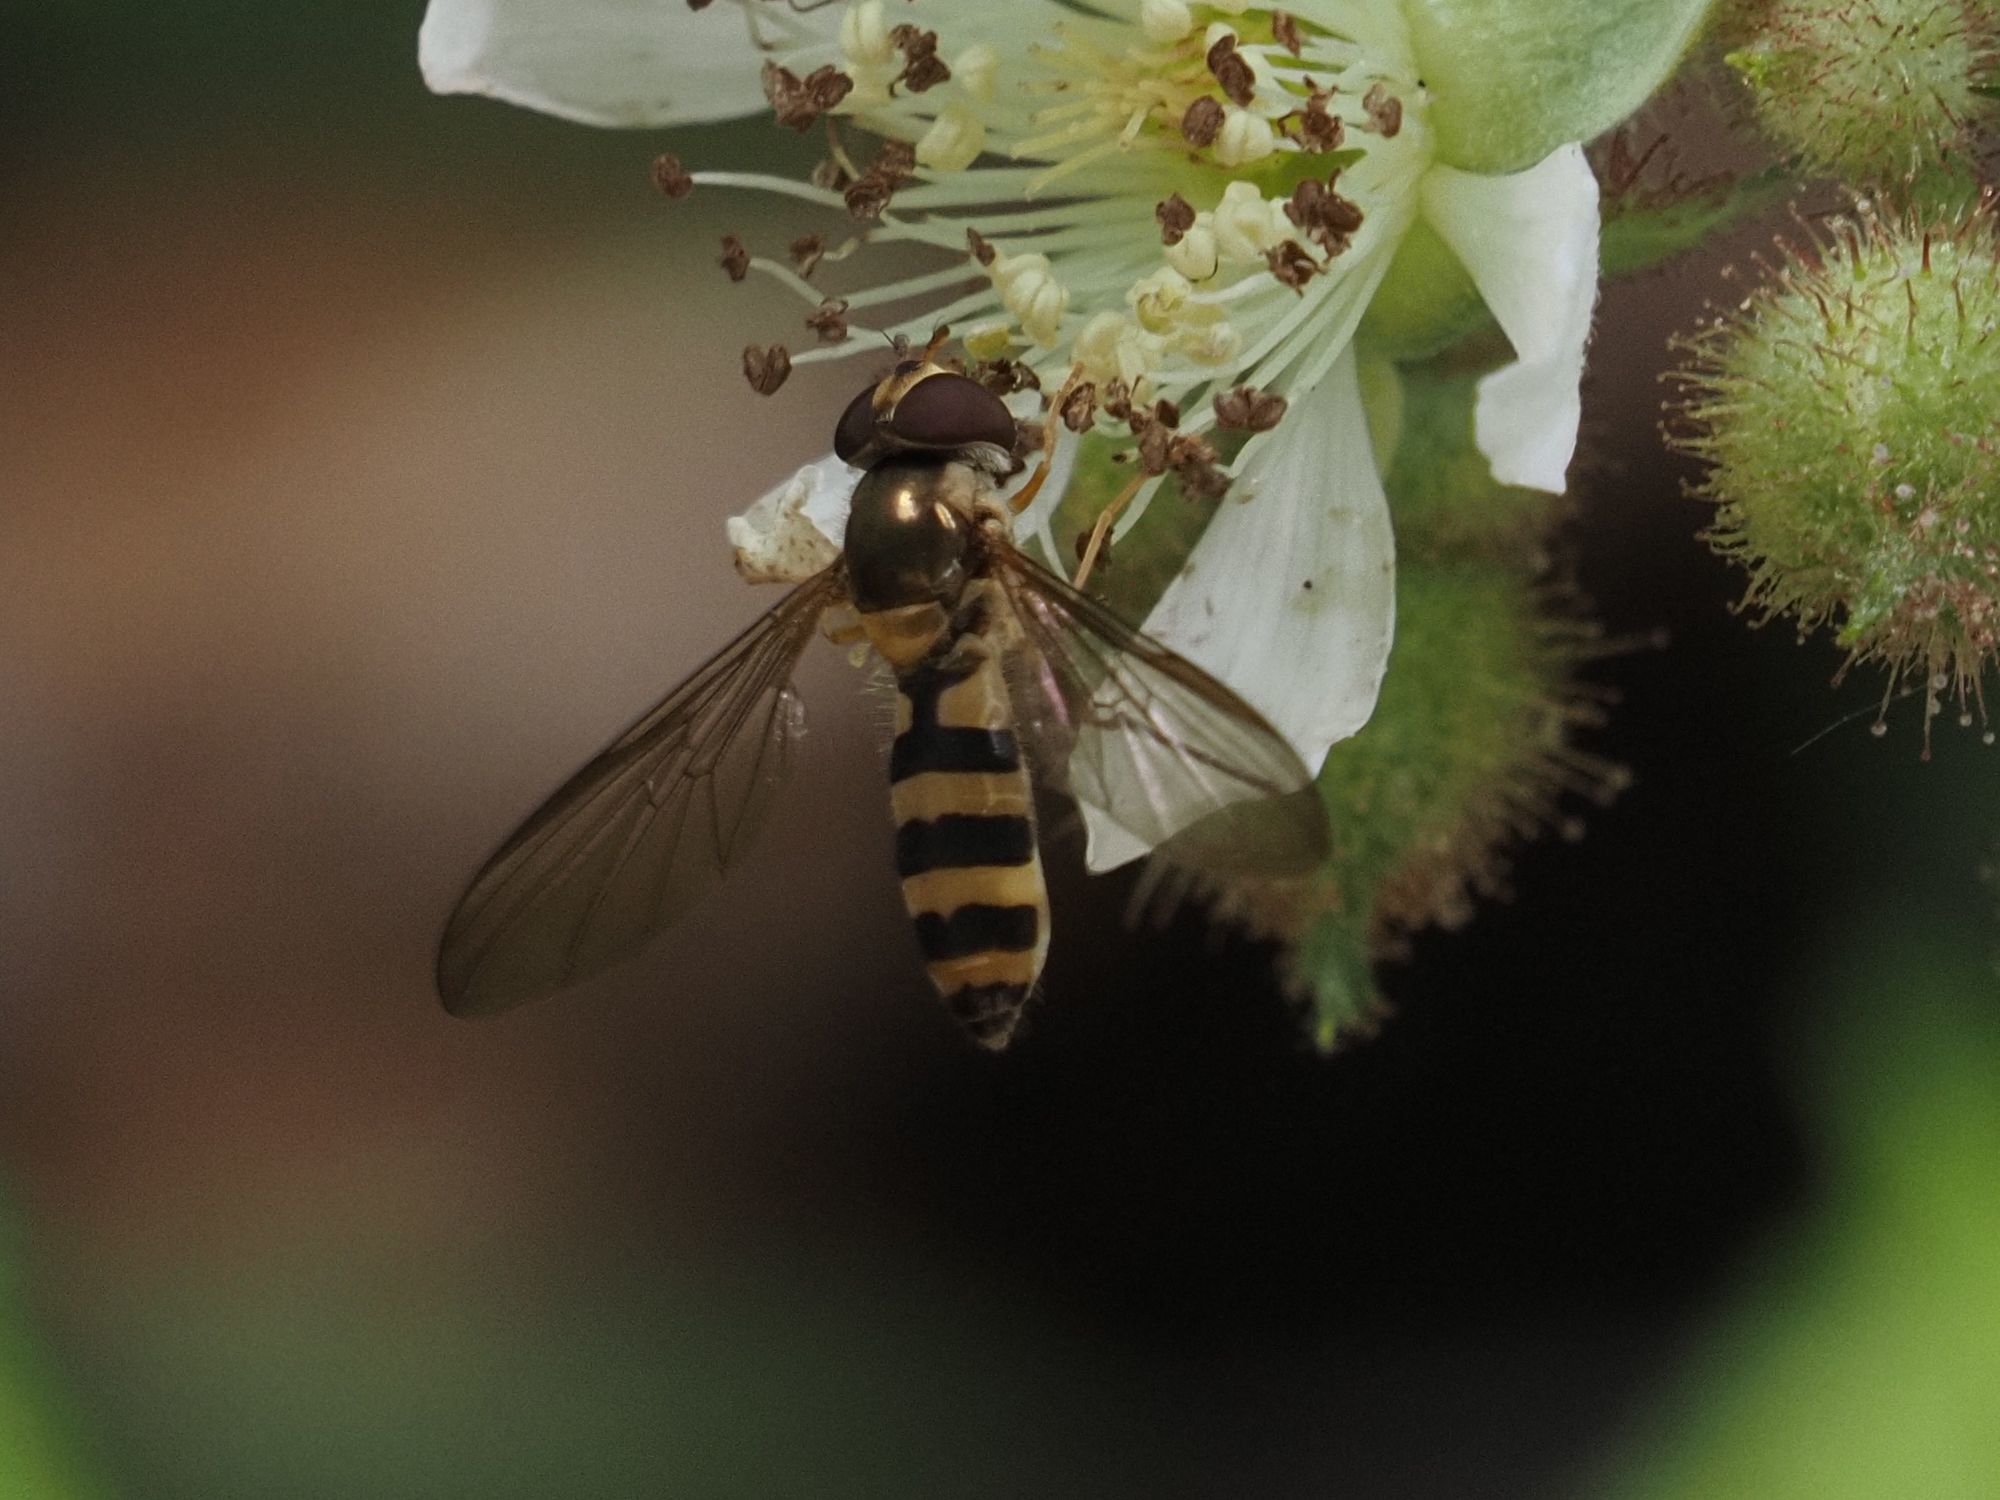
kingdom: Animalia
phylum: Arthropoda
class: Insecta
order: Diptera
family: Syrphidae
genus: Meliscaeva
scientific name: Meliscaeva cinctella
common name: American thintail fly
